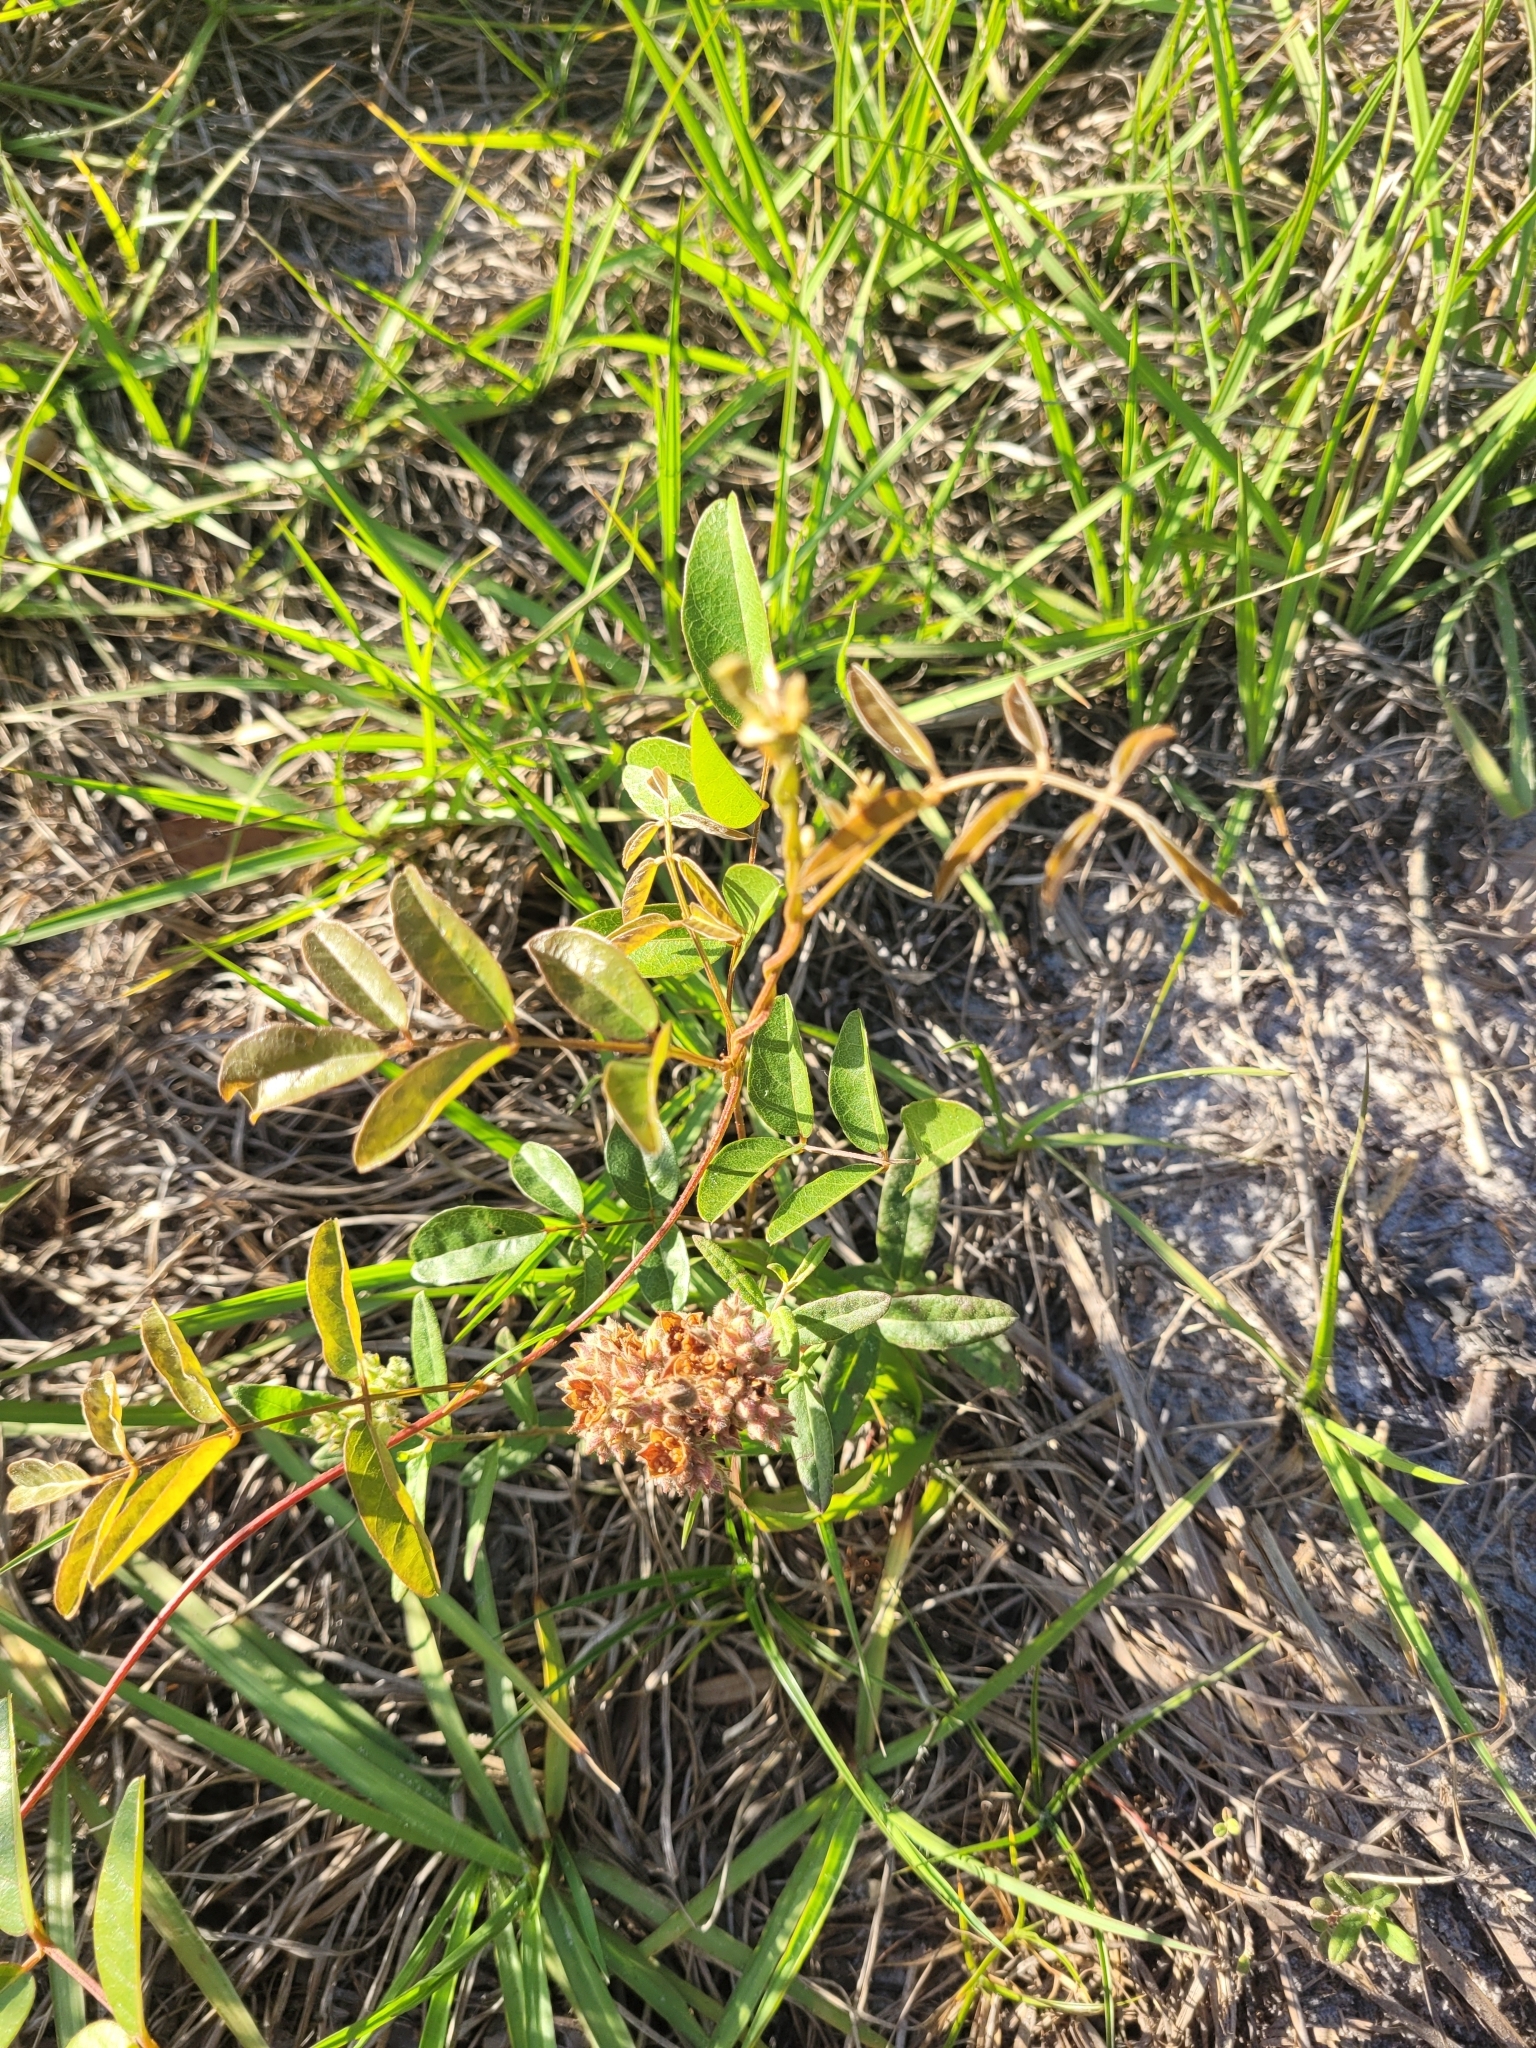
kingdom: Plantae
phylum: Tracheophyta
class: Magnoliopsida
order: Malvales
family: Cistaceae
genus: Crocanthemum
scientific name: Crocanthemum corymbosum
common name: Pinebarren sun-rose
